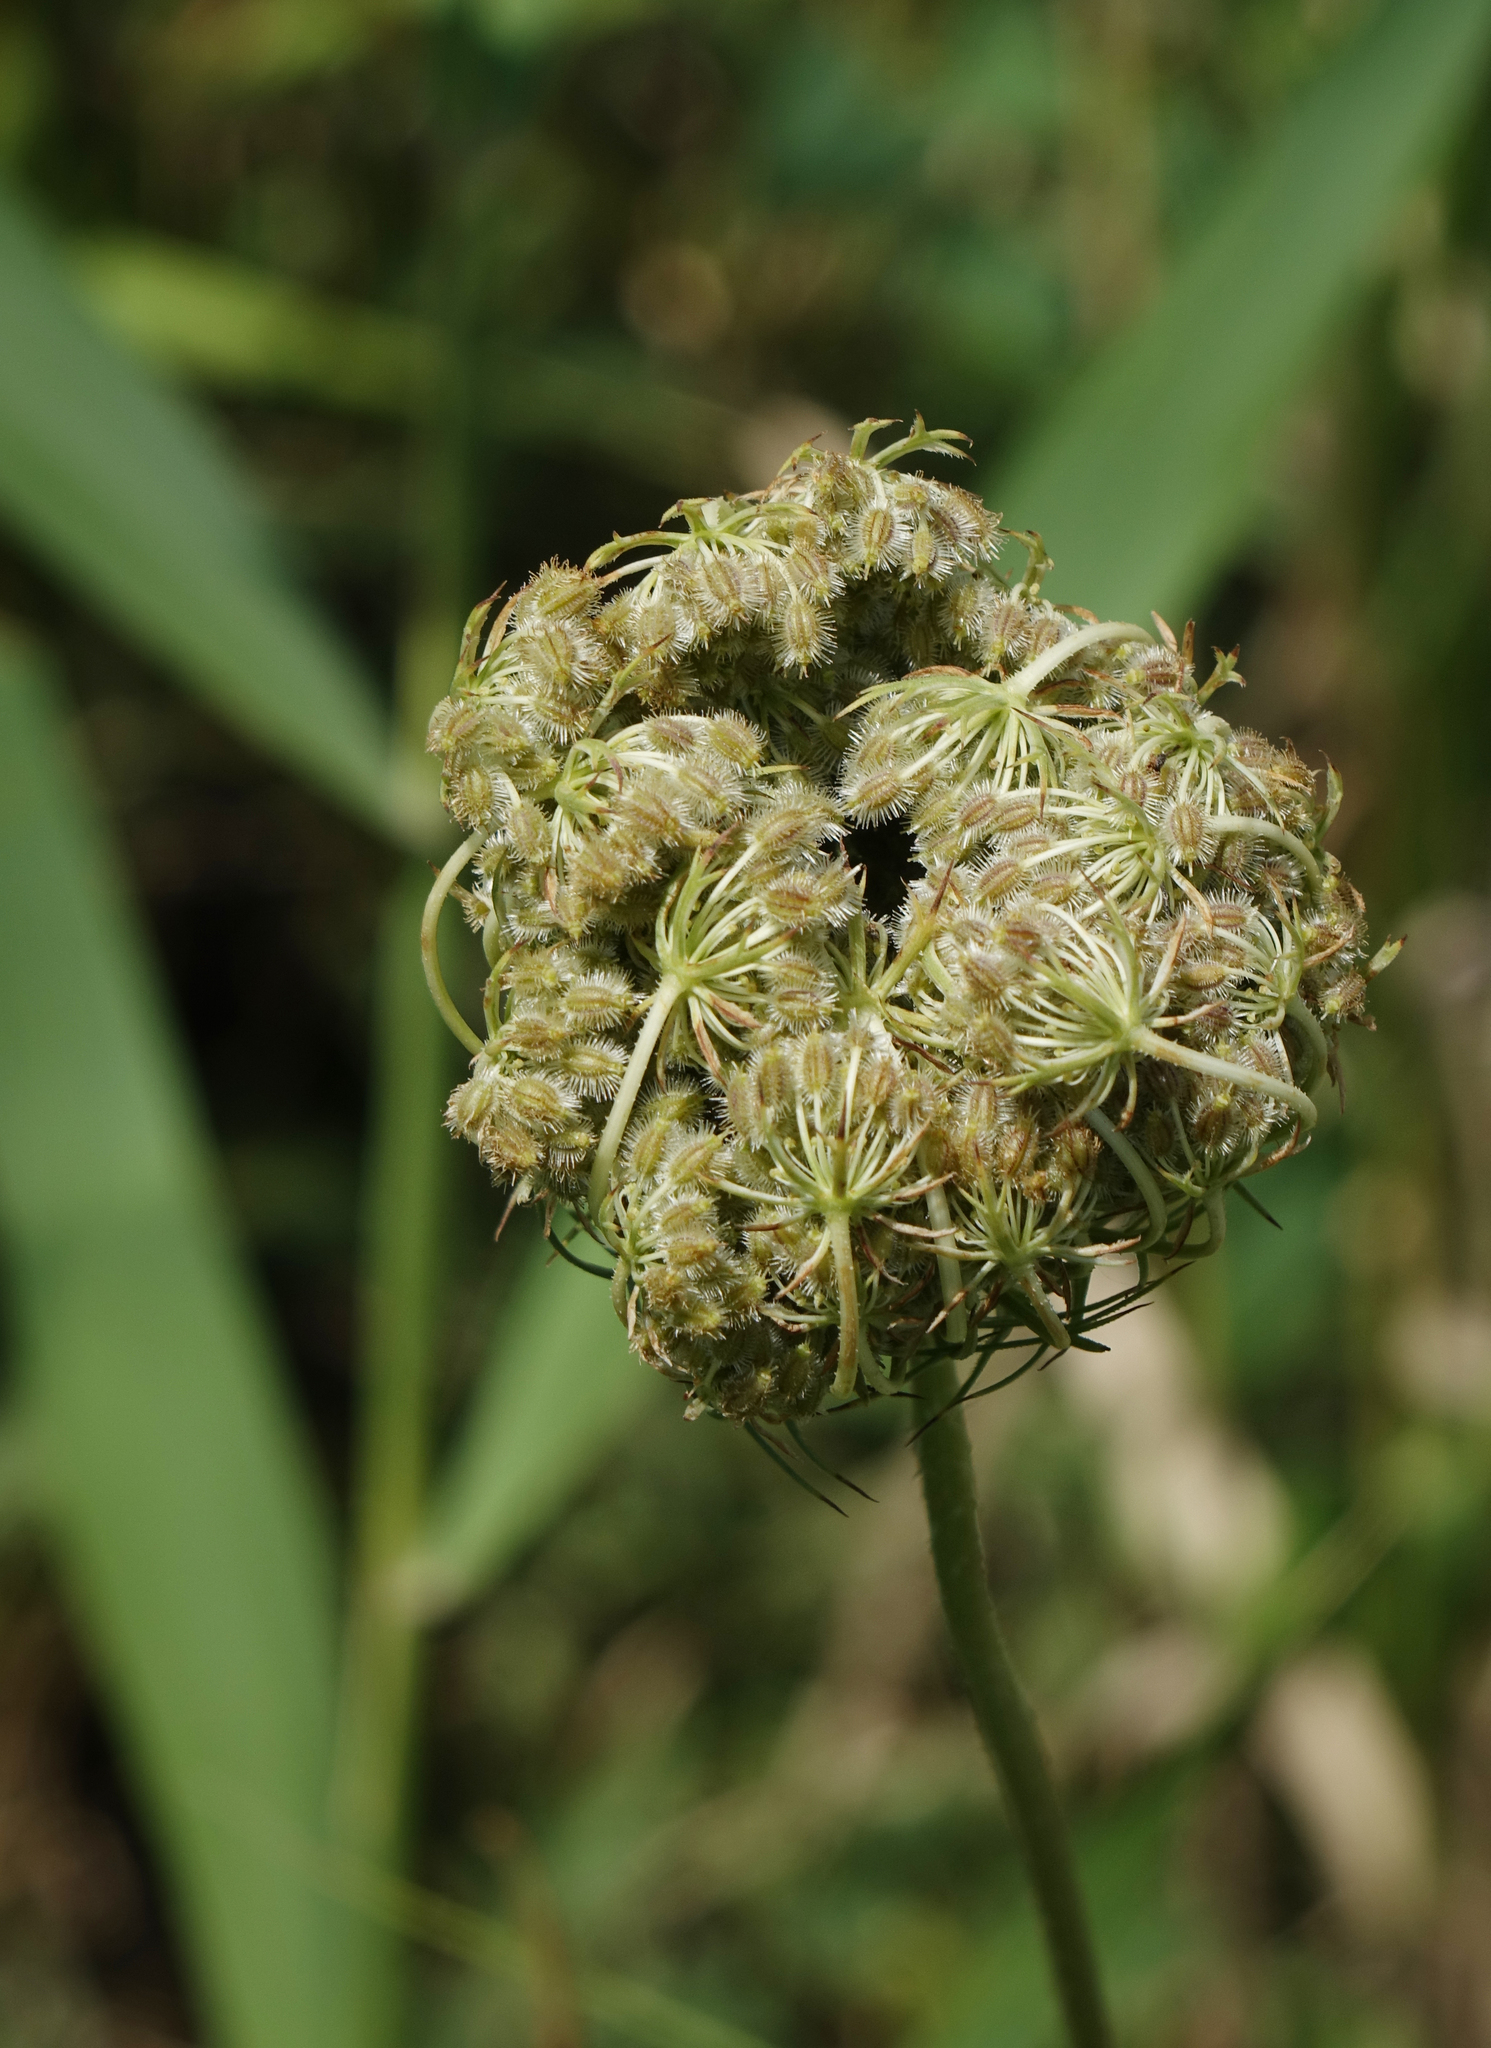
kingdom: Plantae
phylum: Tracheophyta
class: Magnoliopsida
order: Apiales
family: Apiaceae
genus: Daucus
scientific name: Daucus carota
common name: Wild carrot
